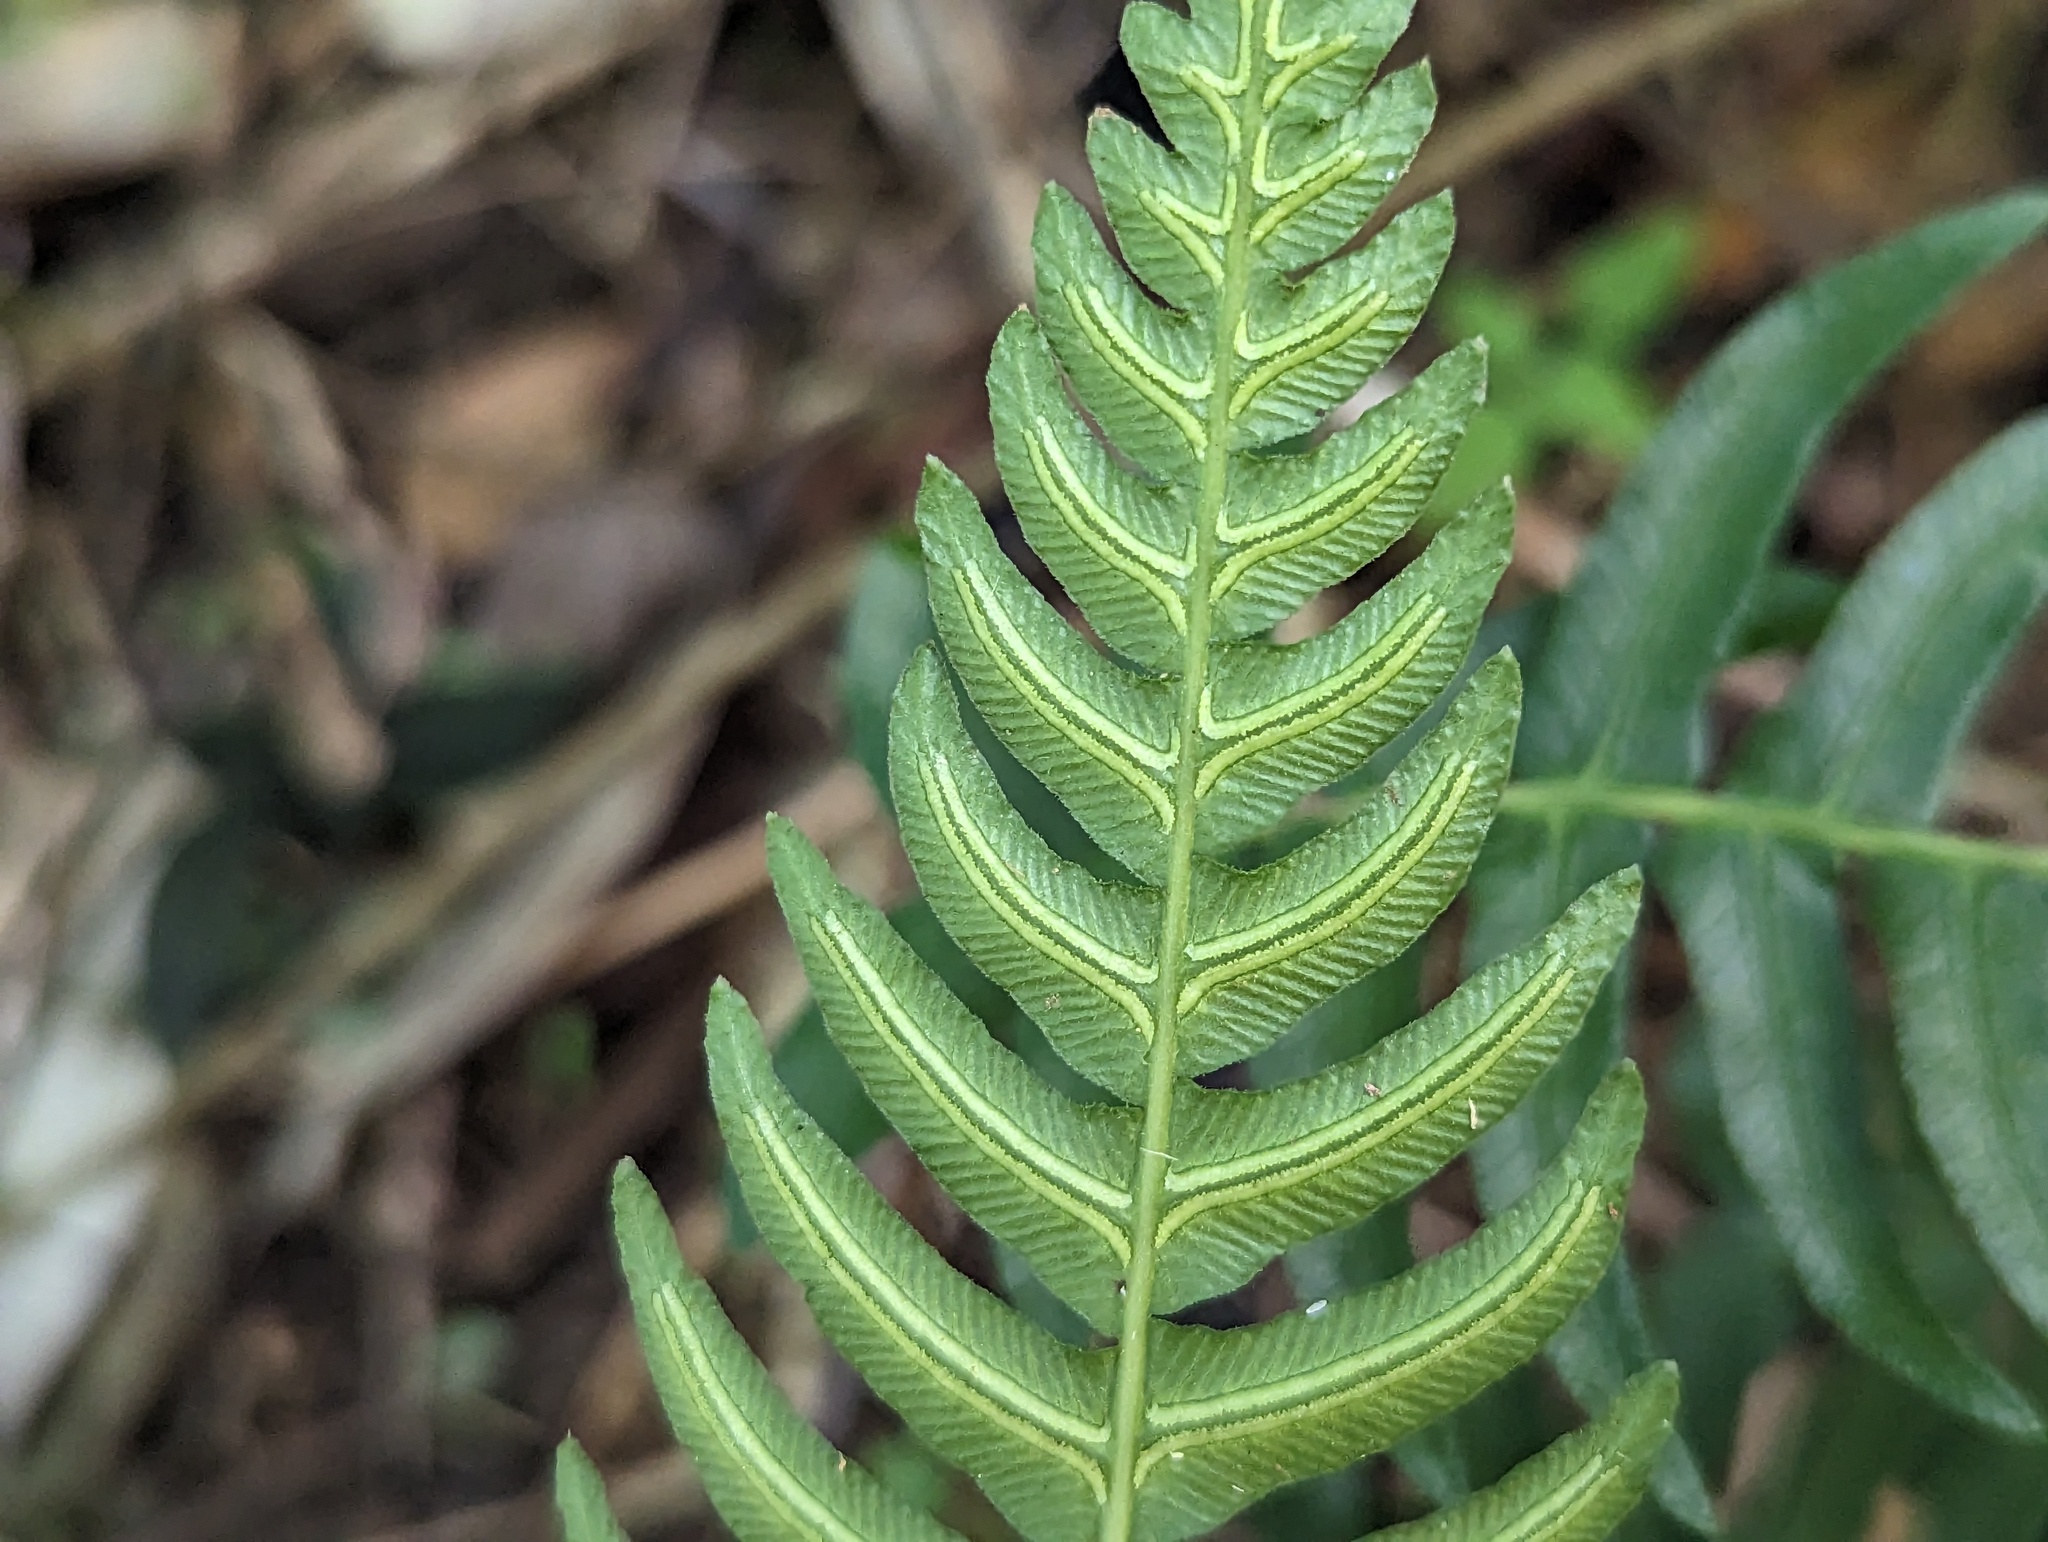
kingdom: Plantae
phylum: Tracheophyta
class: Polypodiopsida
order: Polypodiales
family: Blechnaceae
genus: Blechnum
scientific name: Blechnum occidentale
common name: Hammock fern
